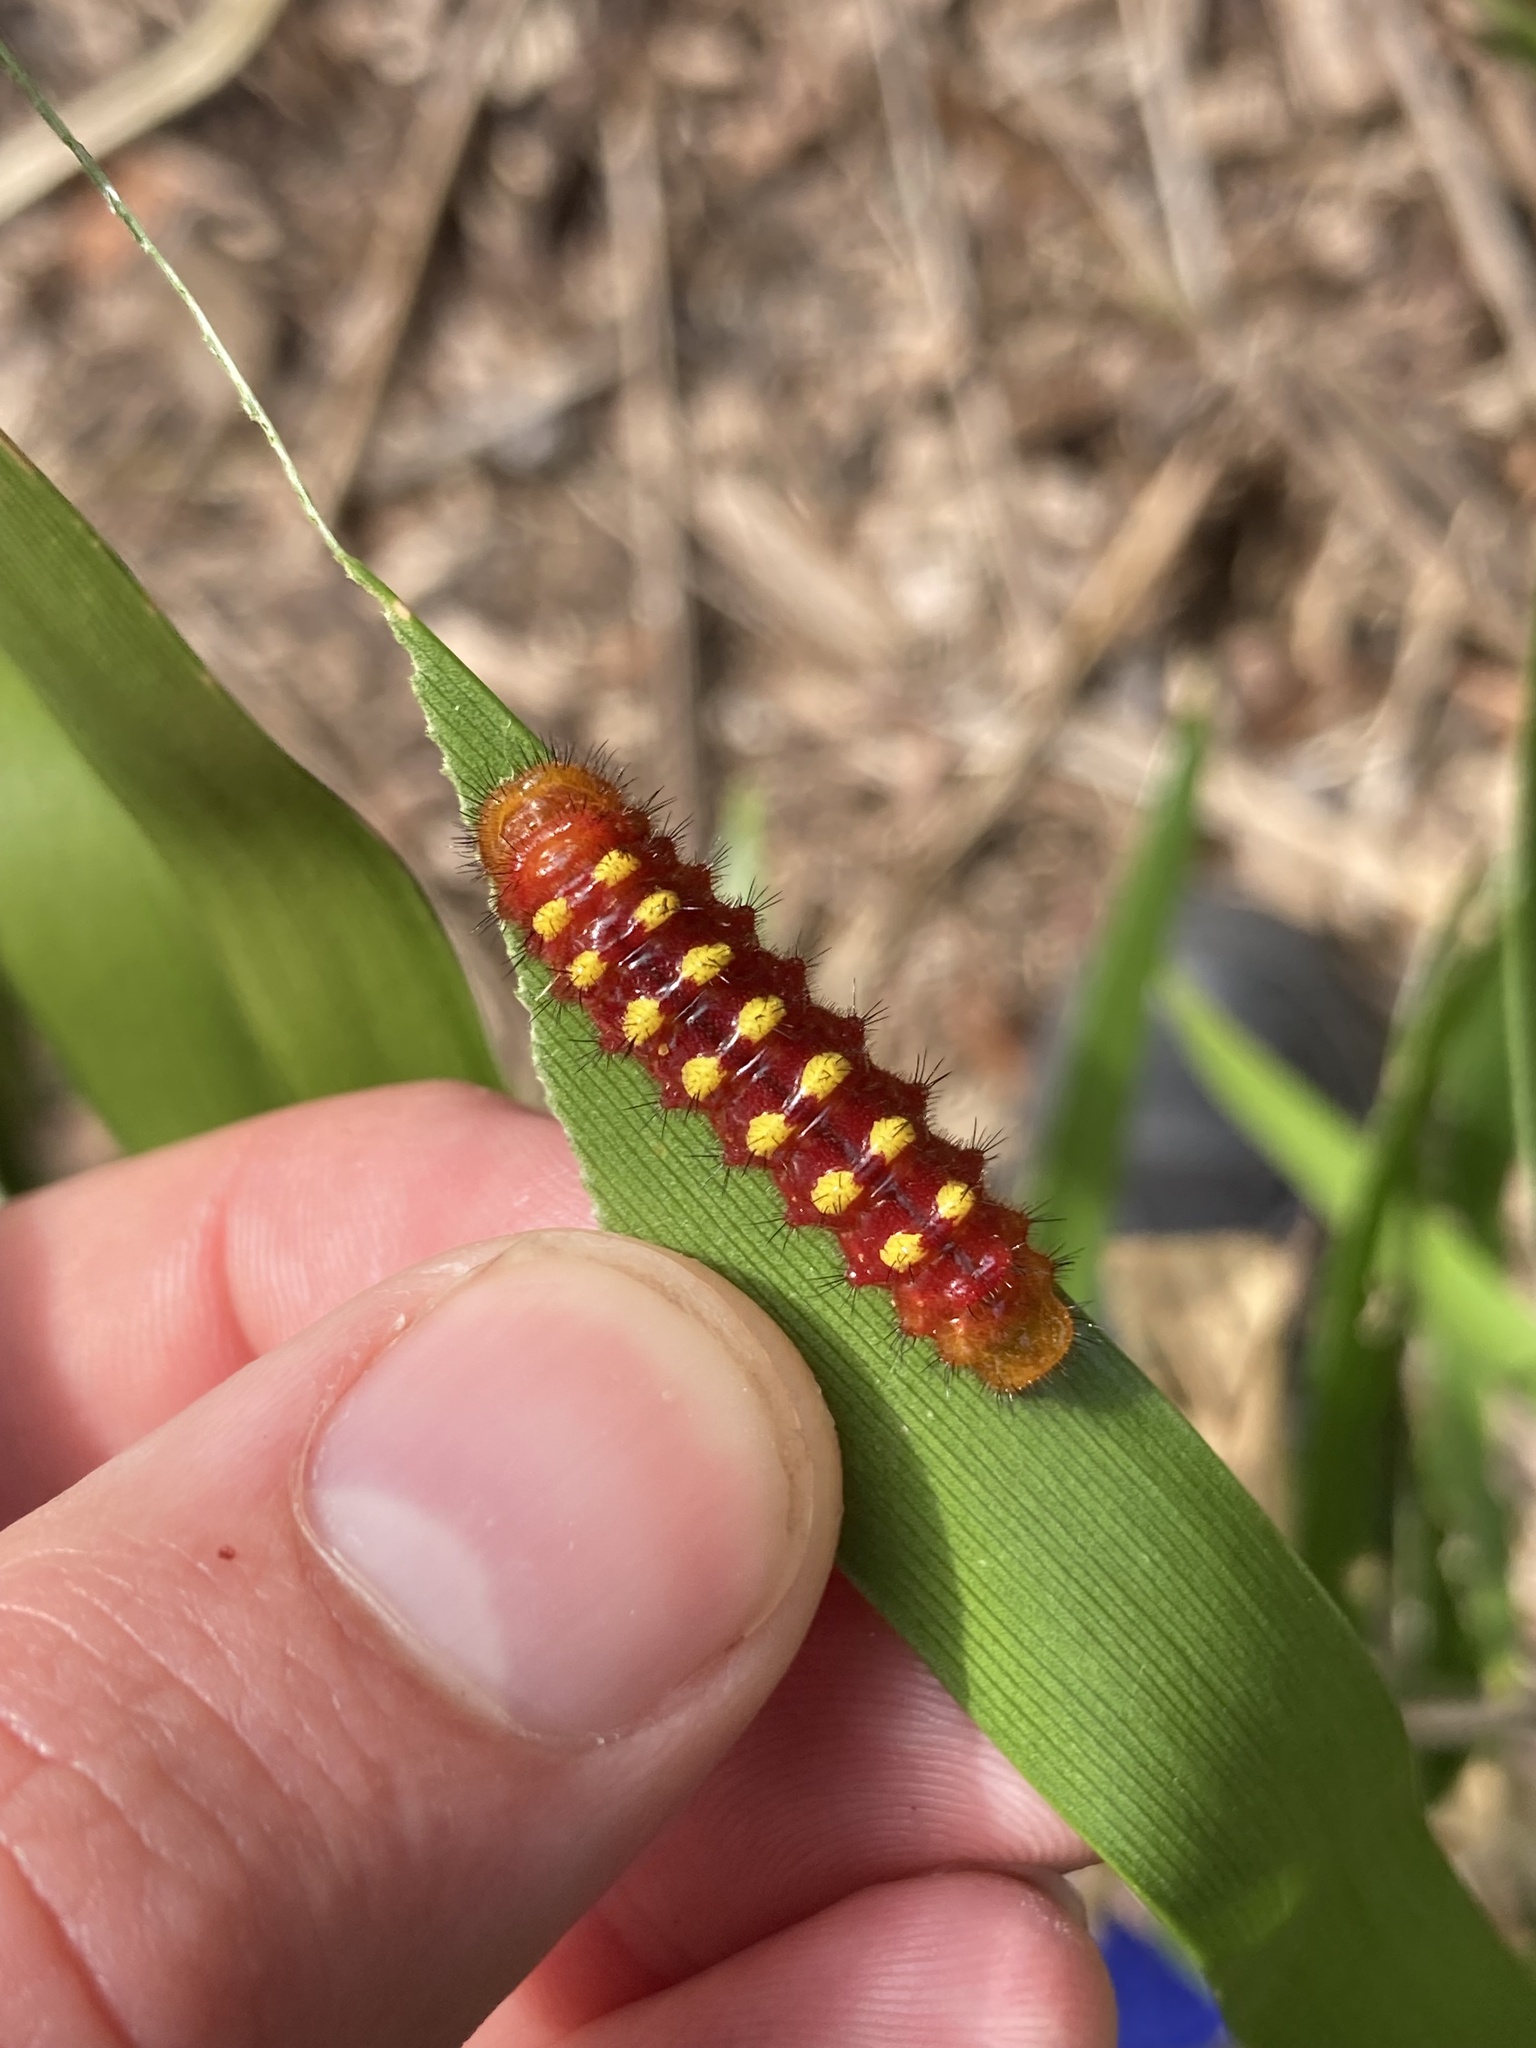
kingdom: Animalia
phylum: Arthropoda
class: Insecta
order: Lepidoptera
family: Lycaenidae
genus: Eumaeus
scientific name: Eumaeus atala
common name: Atala
